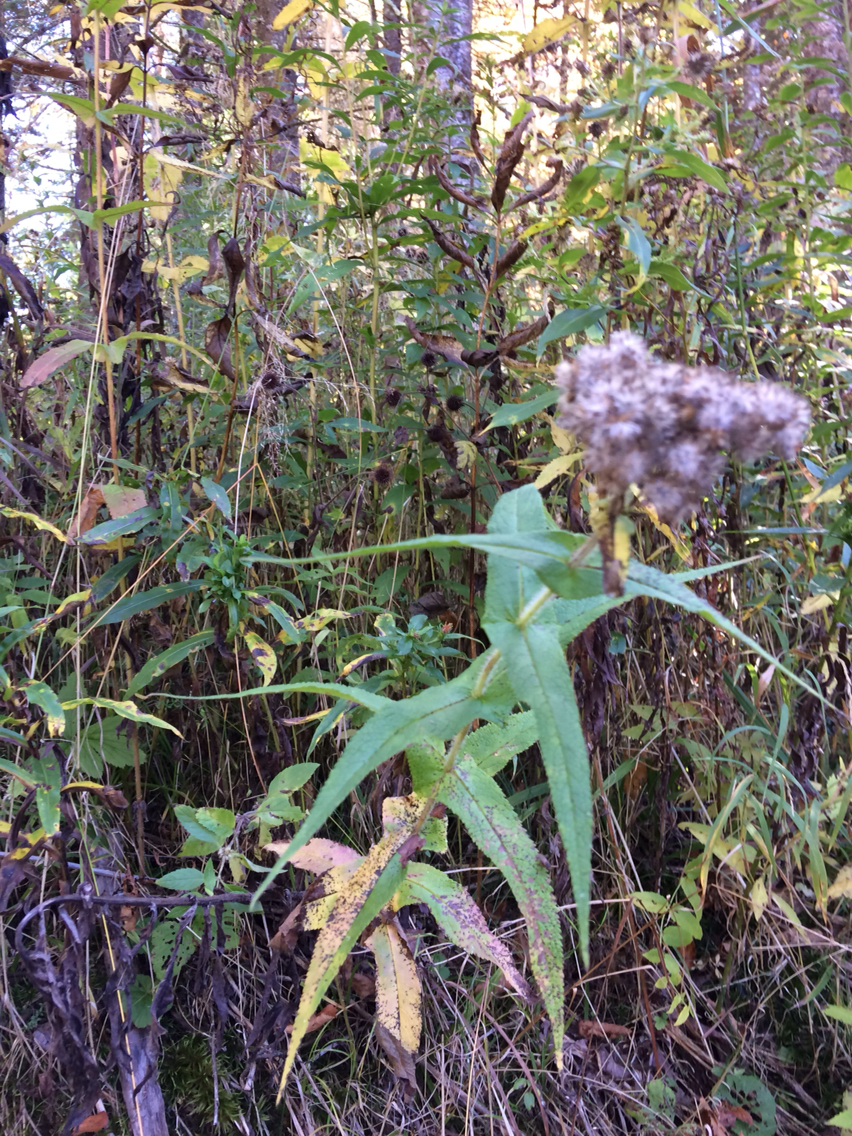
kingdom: Plantae
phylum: Tracheophyta
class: Magnoliopsida
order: Asterales
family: Asteraceae
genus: Eupatorium
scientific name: Eupatorium perfoliatum
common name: Boneset
